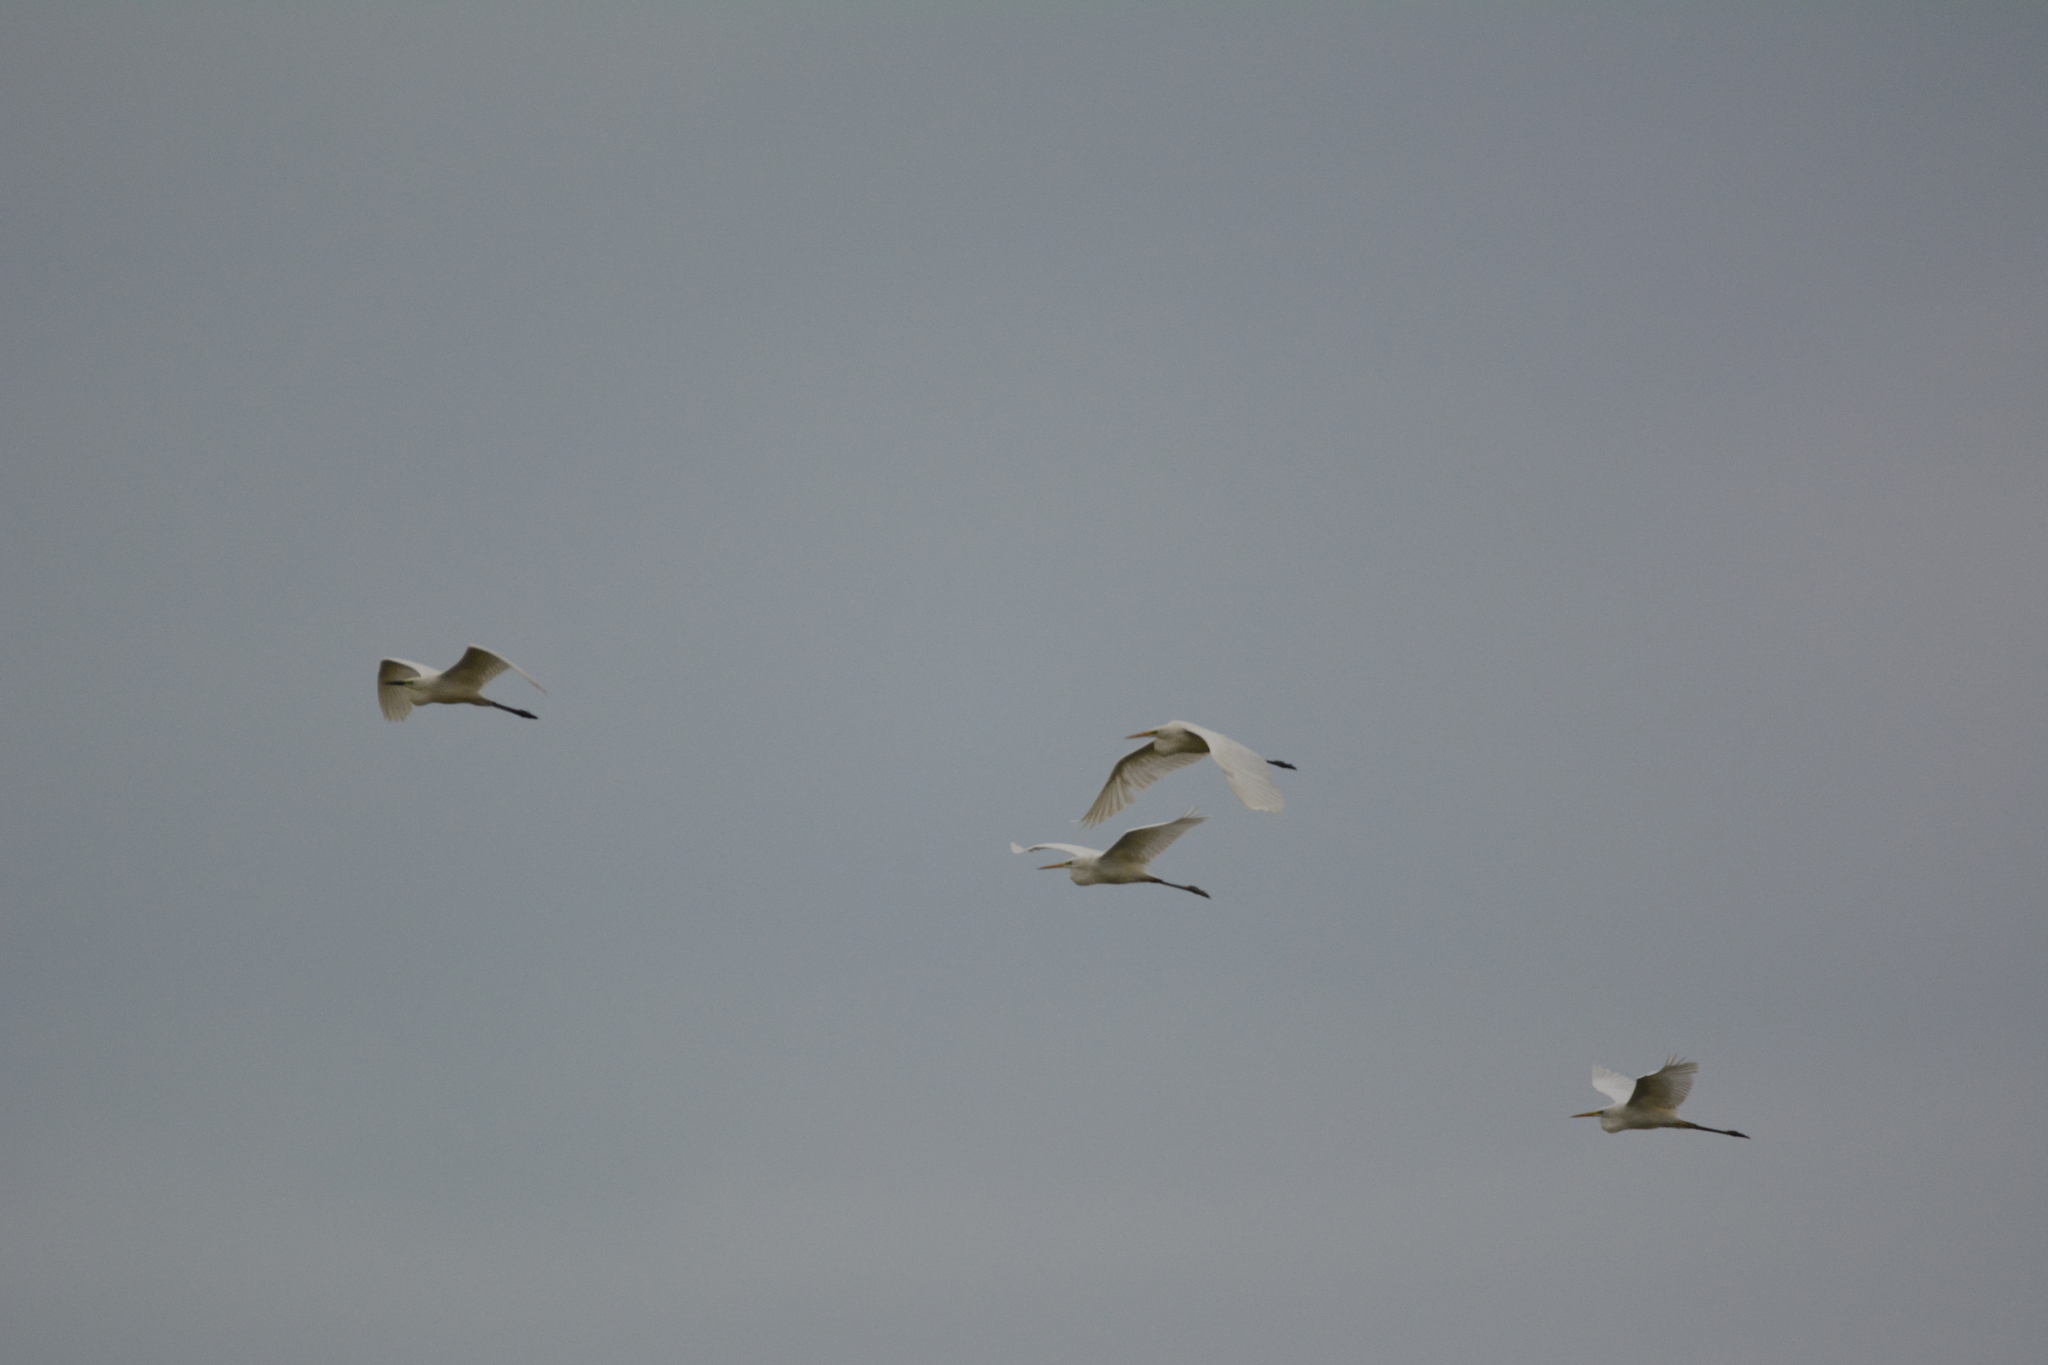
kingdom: Animalia
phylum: Chordata
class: Aves
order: Pelecaniformes
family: Ardeidae
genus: Ardea
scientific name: Ardea alba
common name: Great egret
